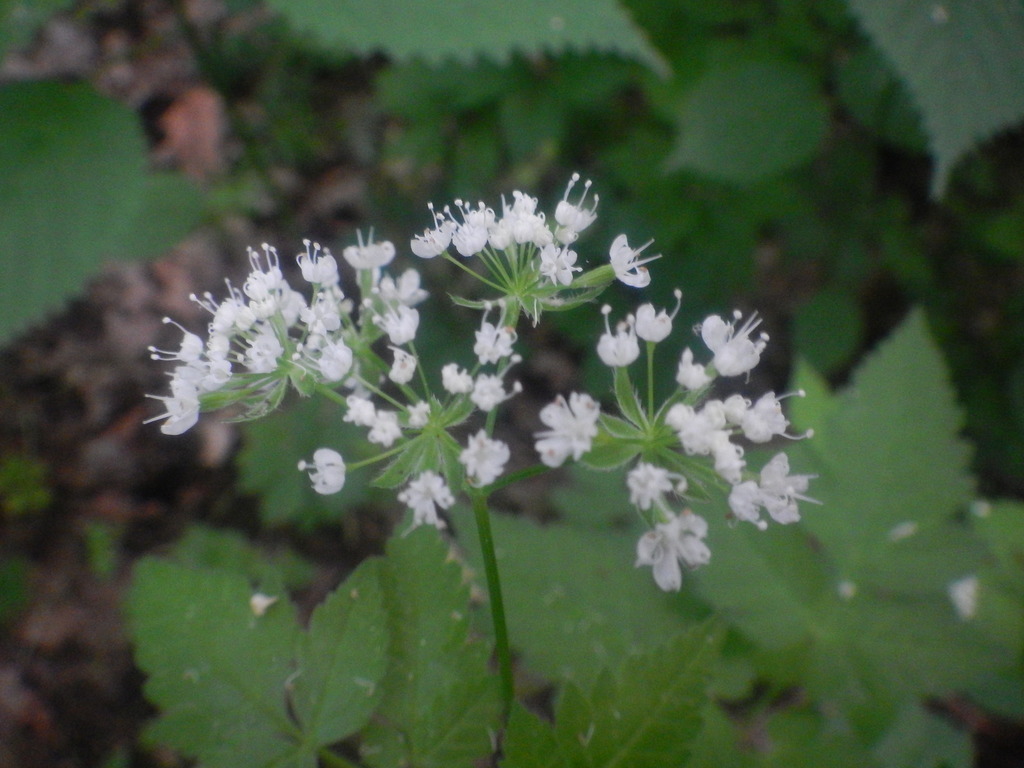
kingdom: Plantae
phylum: Tracheophyta
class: Magnoliopsida
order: Apiales
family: Apiaceae
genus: Osmorhiza
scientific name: Osmorhiza longistylis
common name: Smooth sweet cicely
